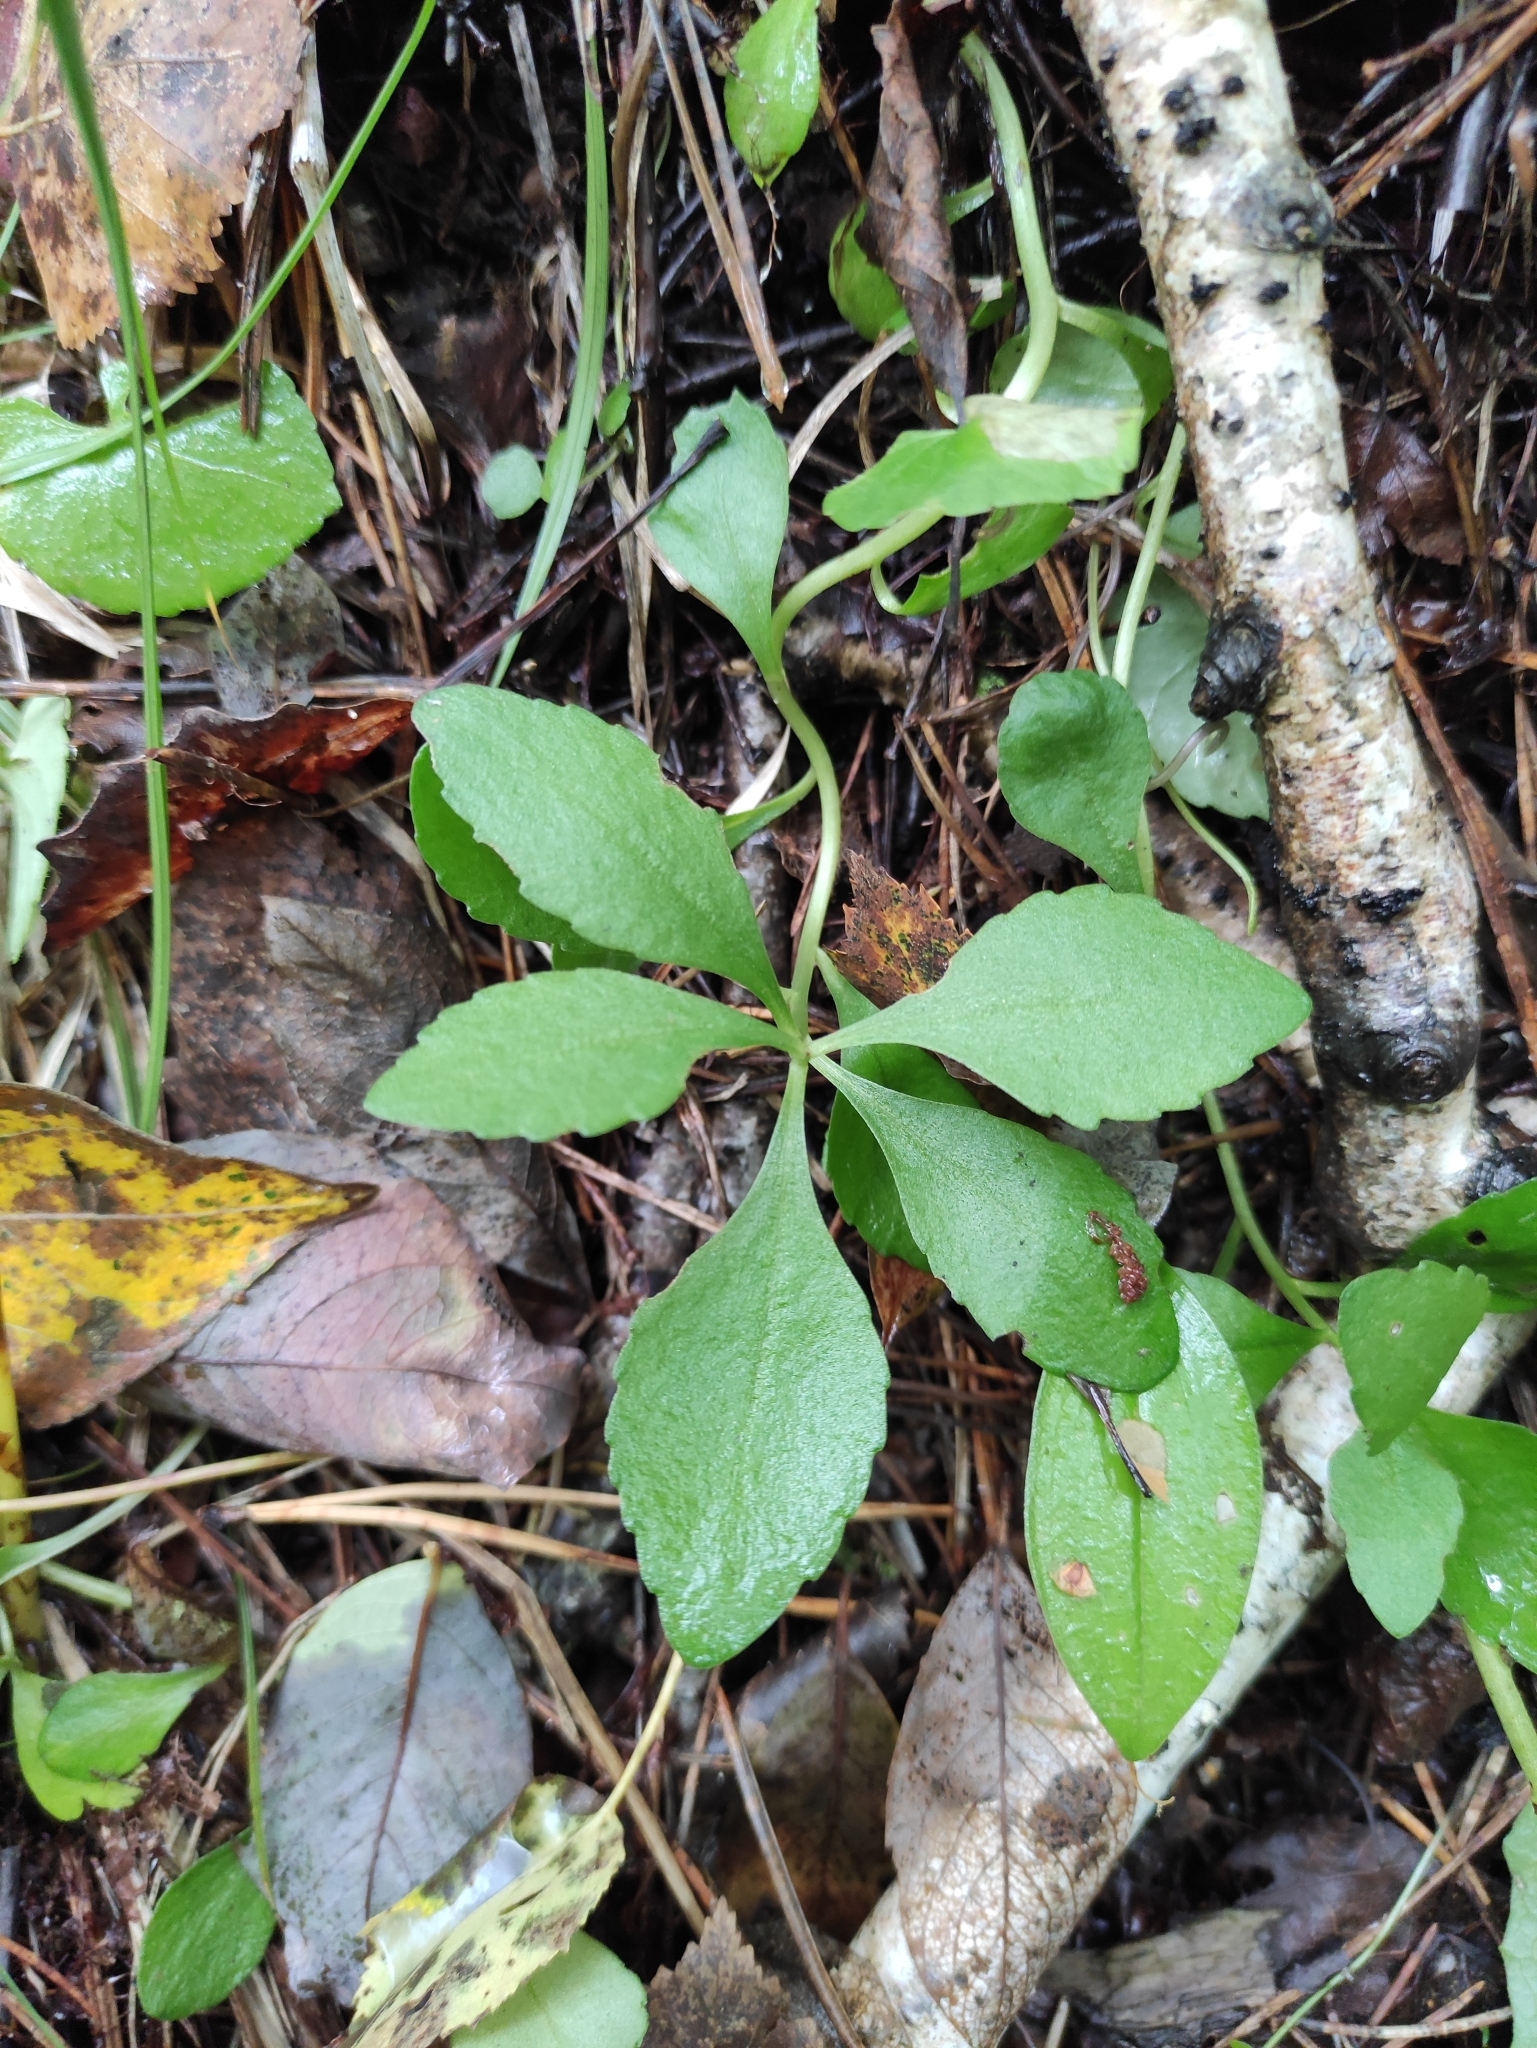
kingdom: Plantae
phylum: Tracheophyta
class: Magnoliopsida
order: Saxifragales
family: Crassulaceae
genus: Phedimus
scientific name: Phedimus aizoon
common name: Orpin aizoon
